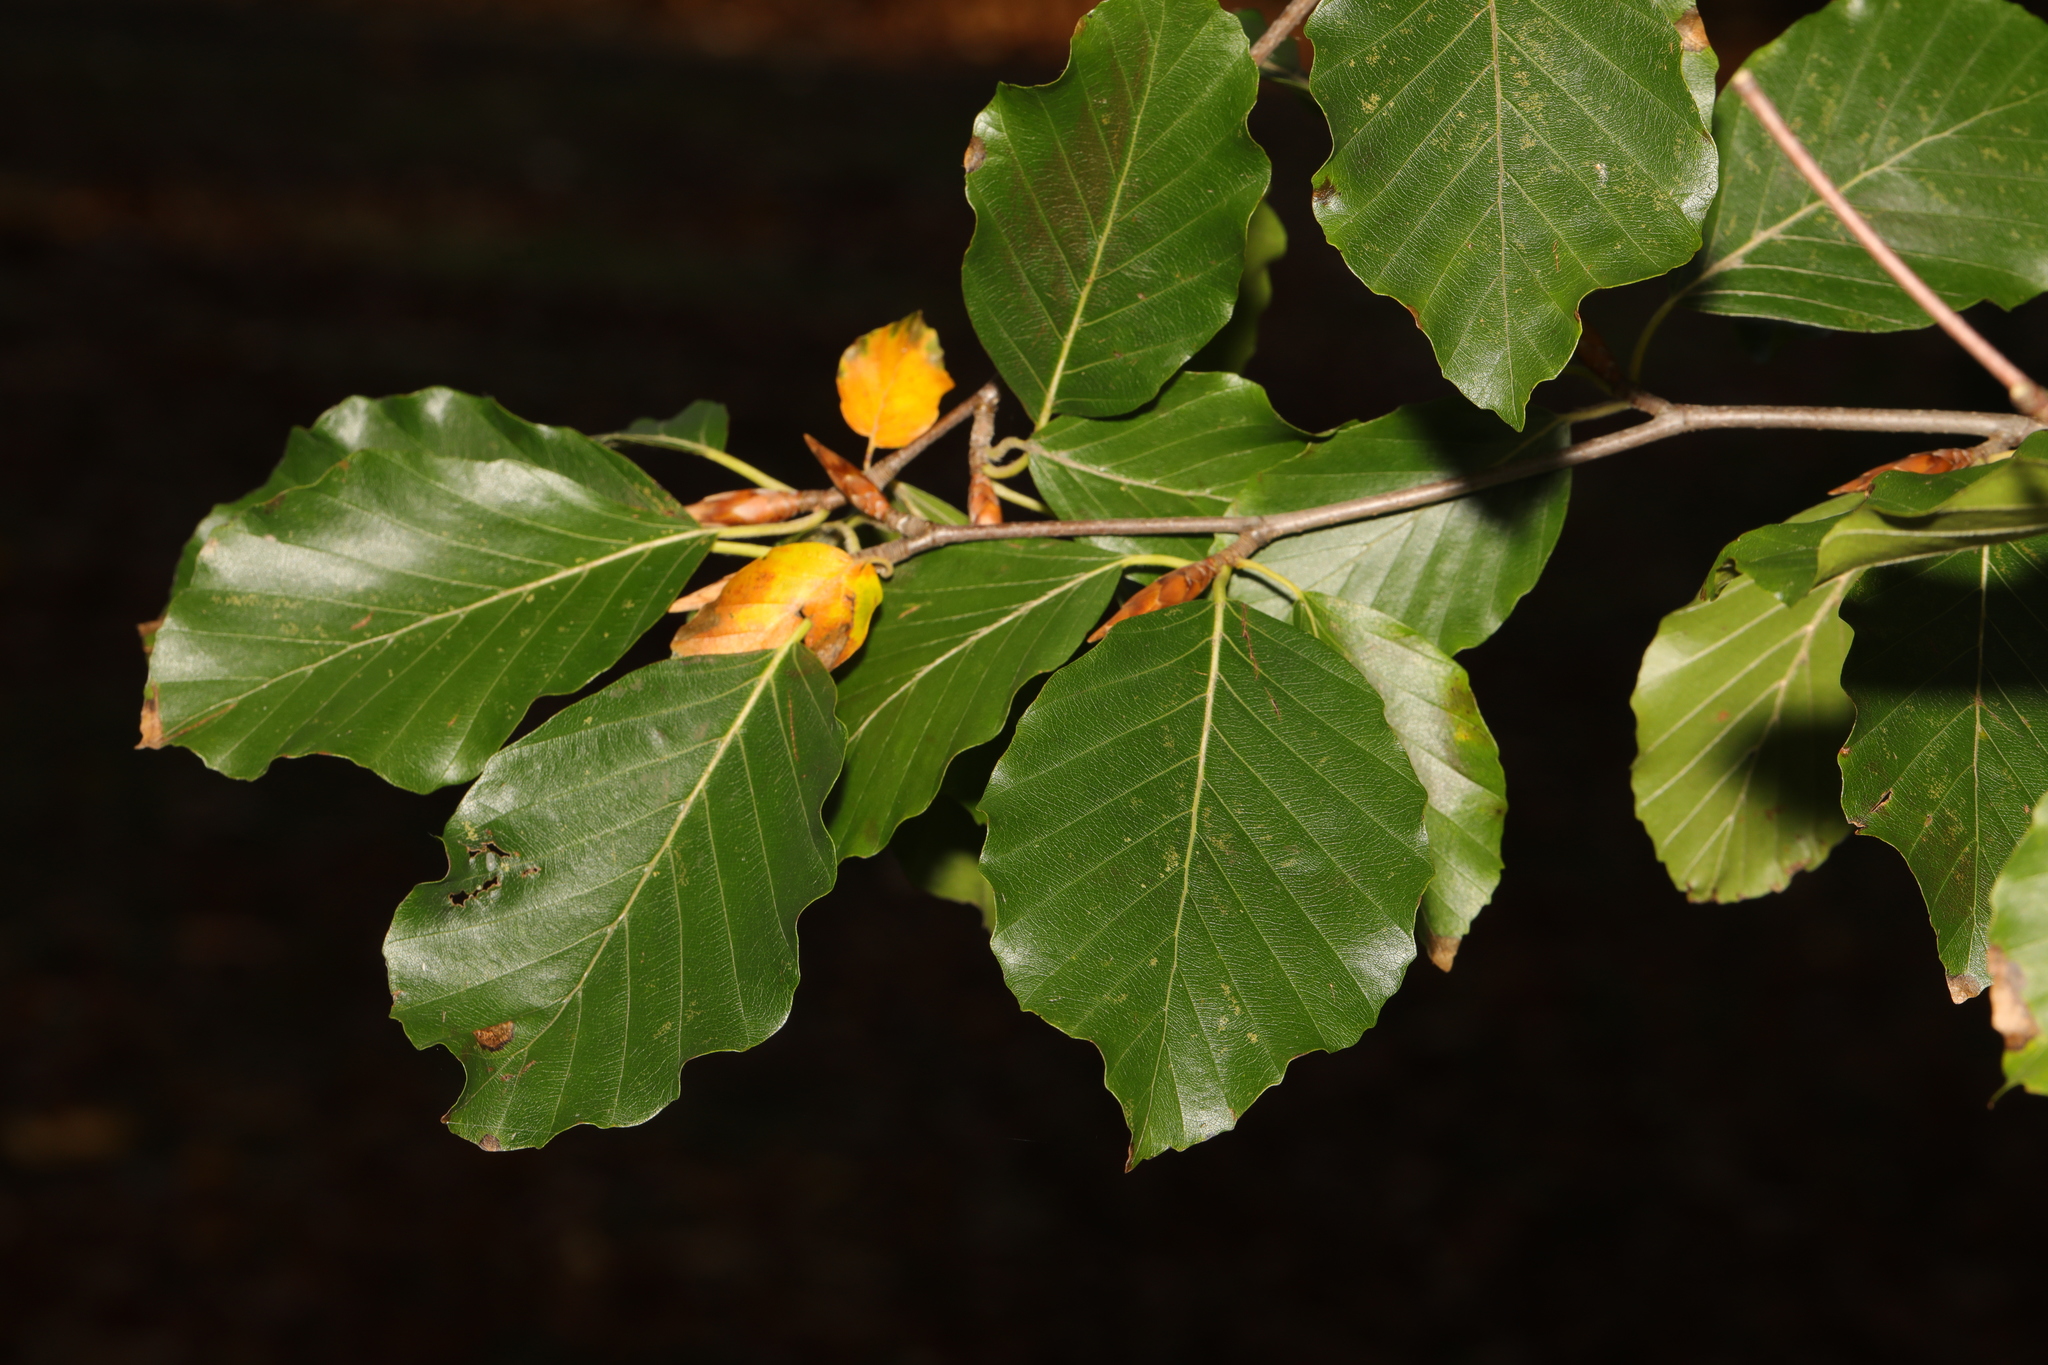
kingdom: Plantae
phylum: Tracheophyta
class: Magnoliopsida
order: Fagales
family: Fagaceae
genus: Fagus
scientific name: Fagus sylvatica
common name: Beech
